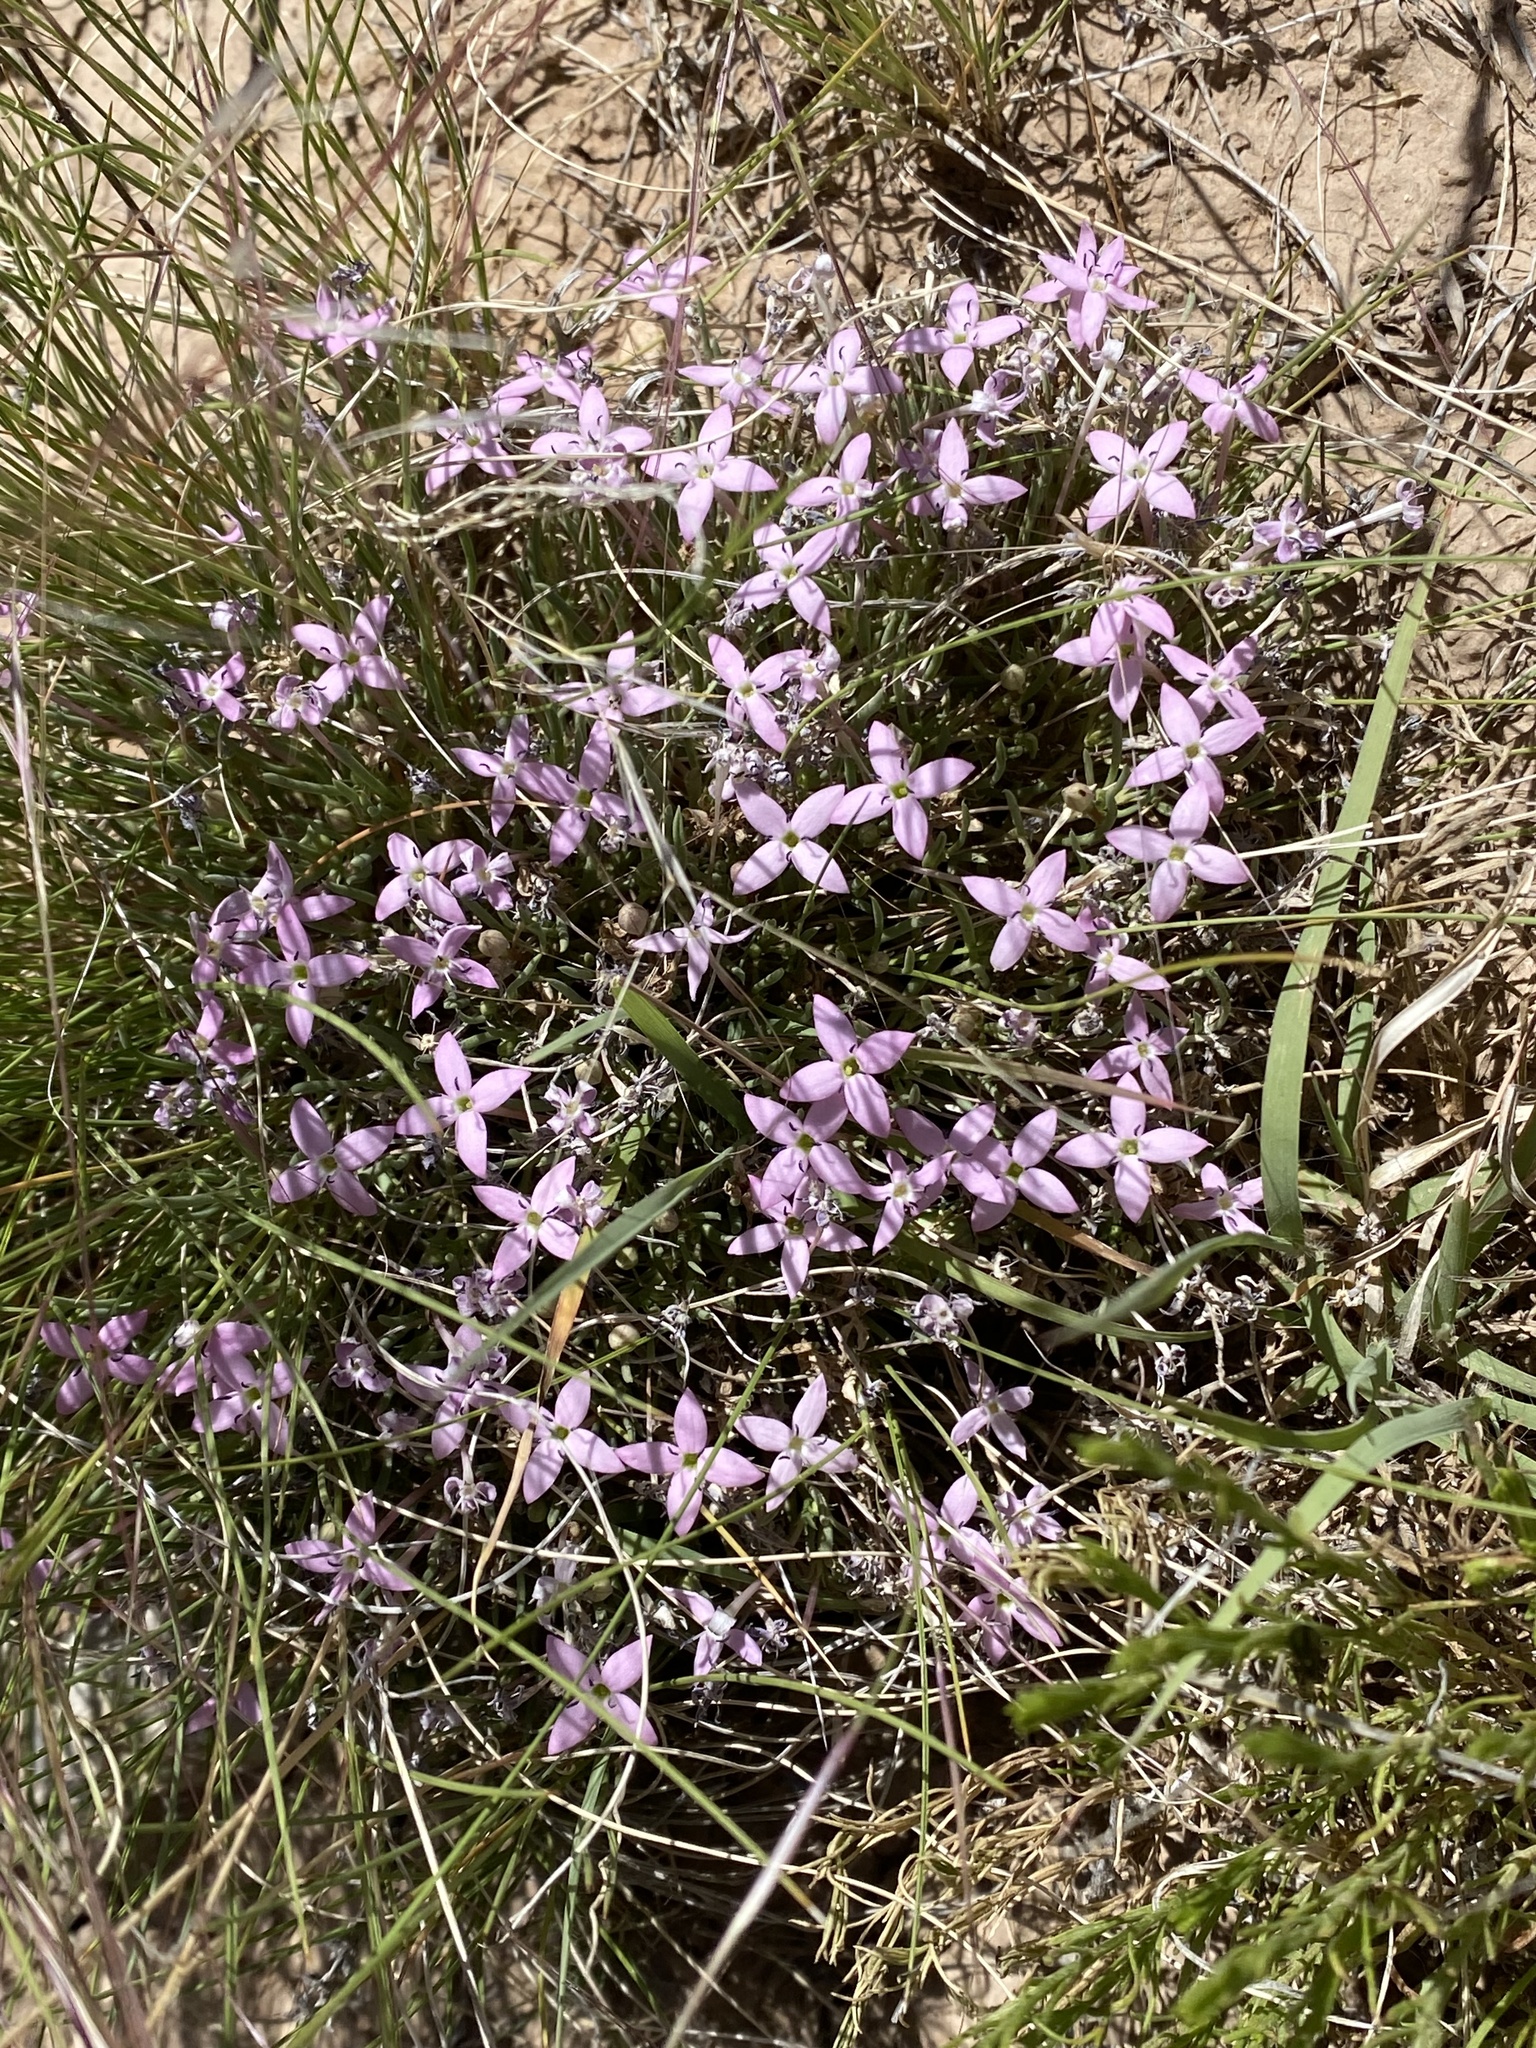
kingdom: Plantae
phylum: Tracheophyta
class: Magnoliopsida
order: Gentianales
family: Rubiaceae
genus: Houstonia
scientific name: Houstonia rubra
